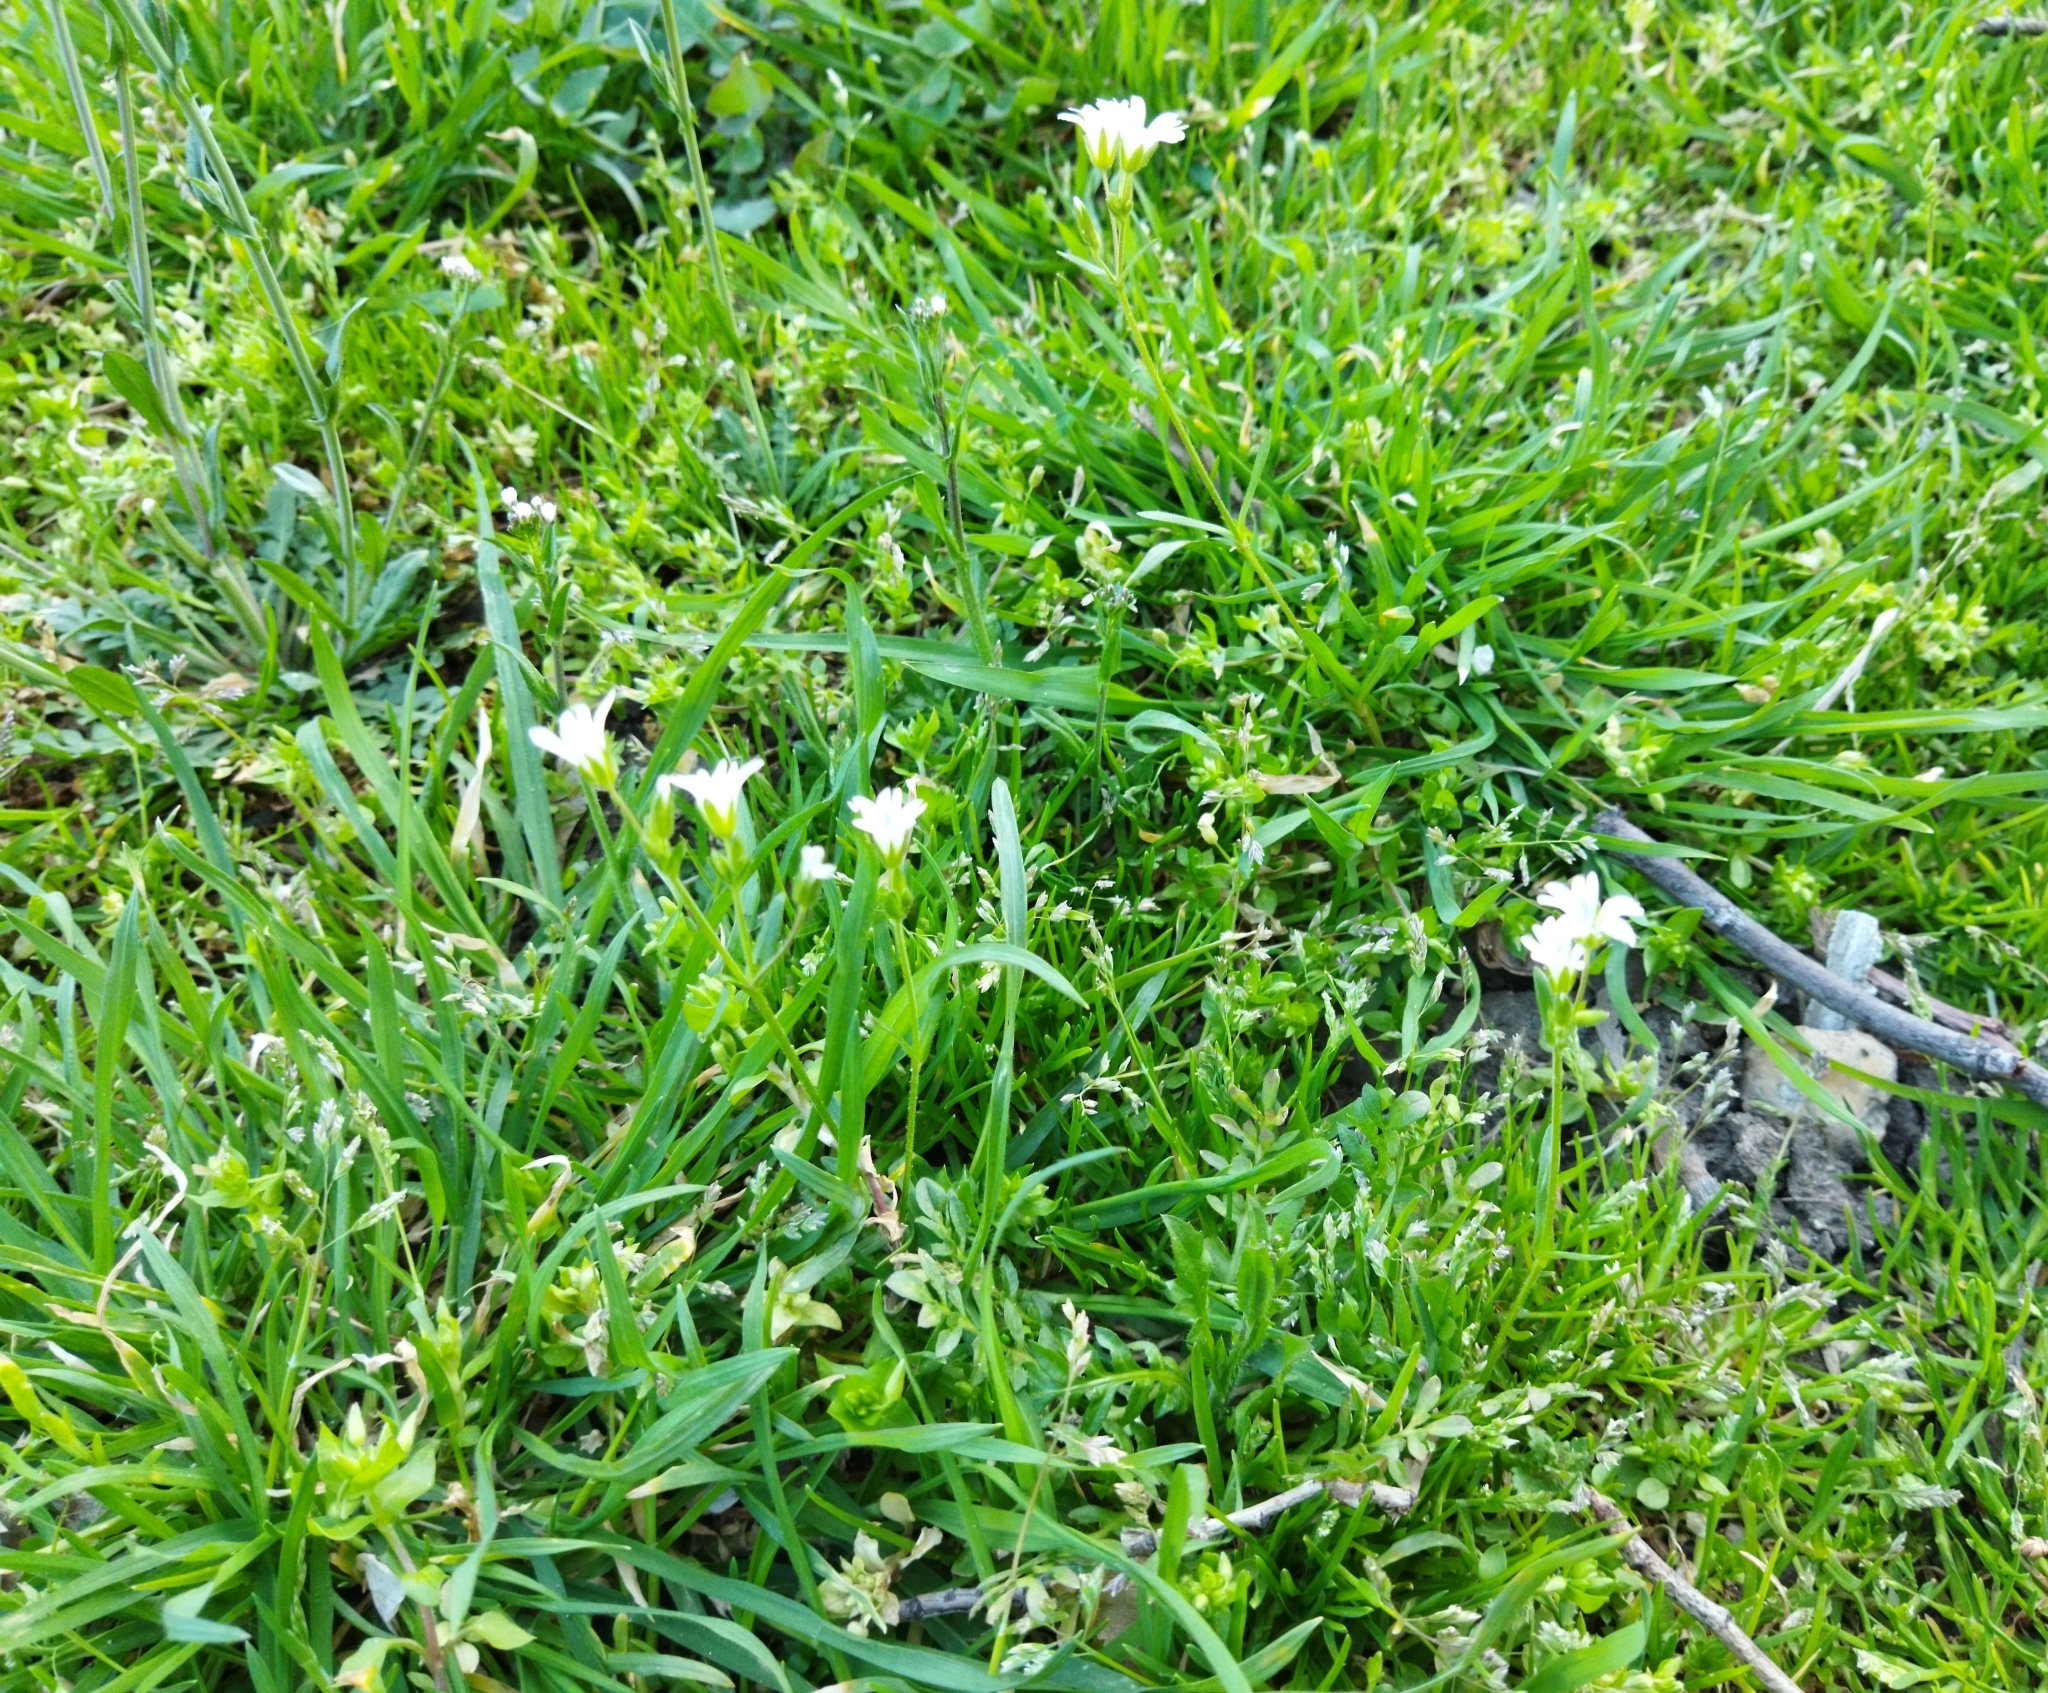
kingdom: Plantae
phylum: Tracheophyta
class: Magnoliopsida
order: Caryophyllales
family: Caryophyllaceae
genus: Dichodon
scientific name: Dichodon viscidum
